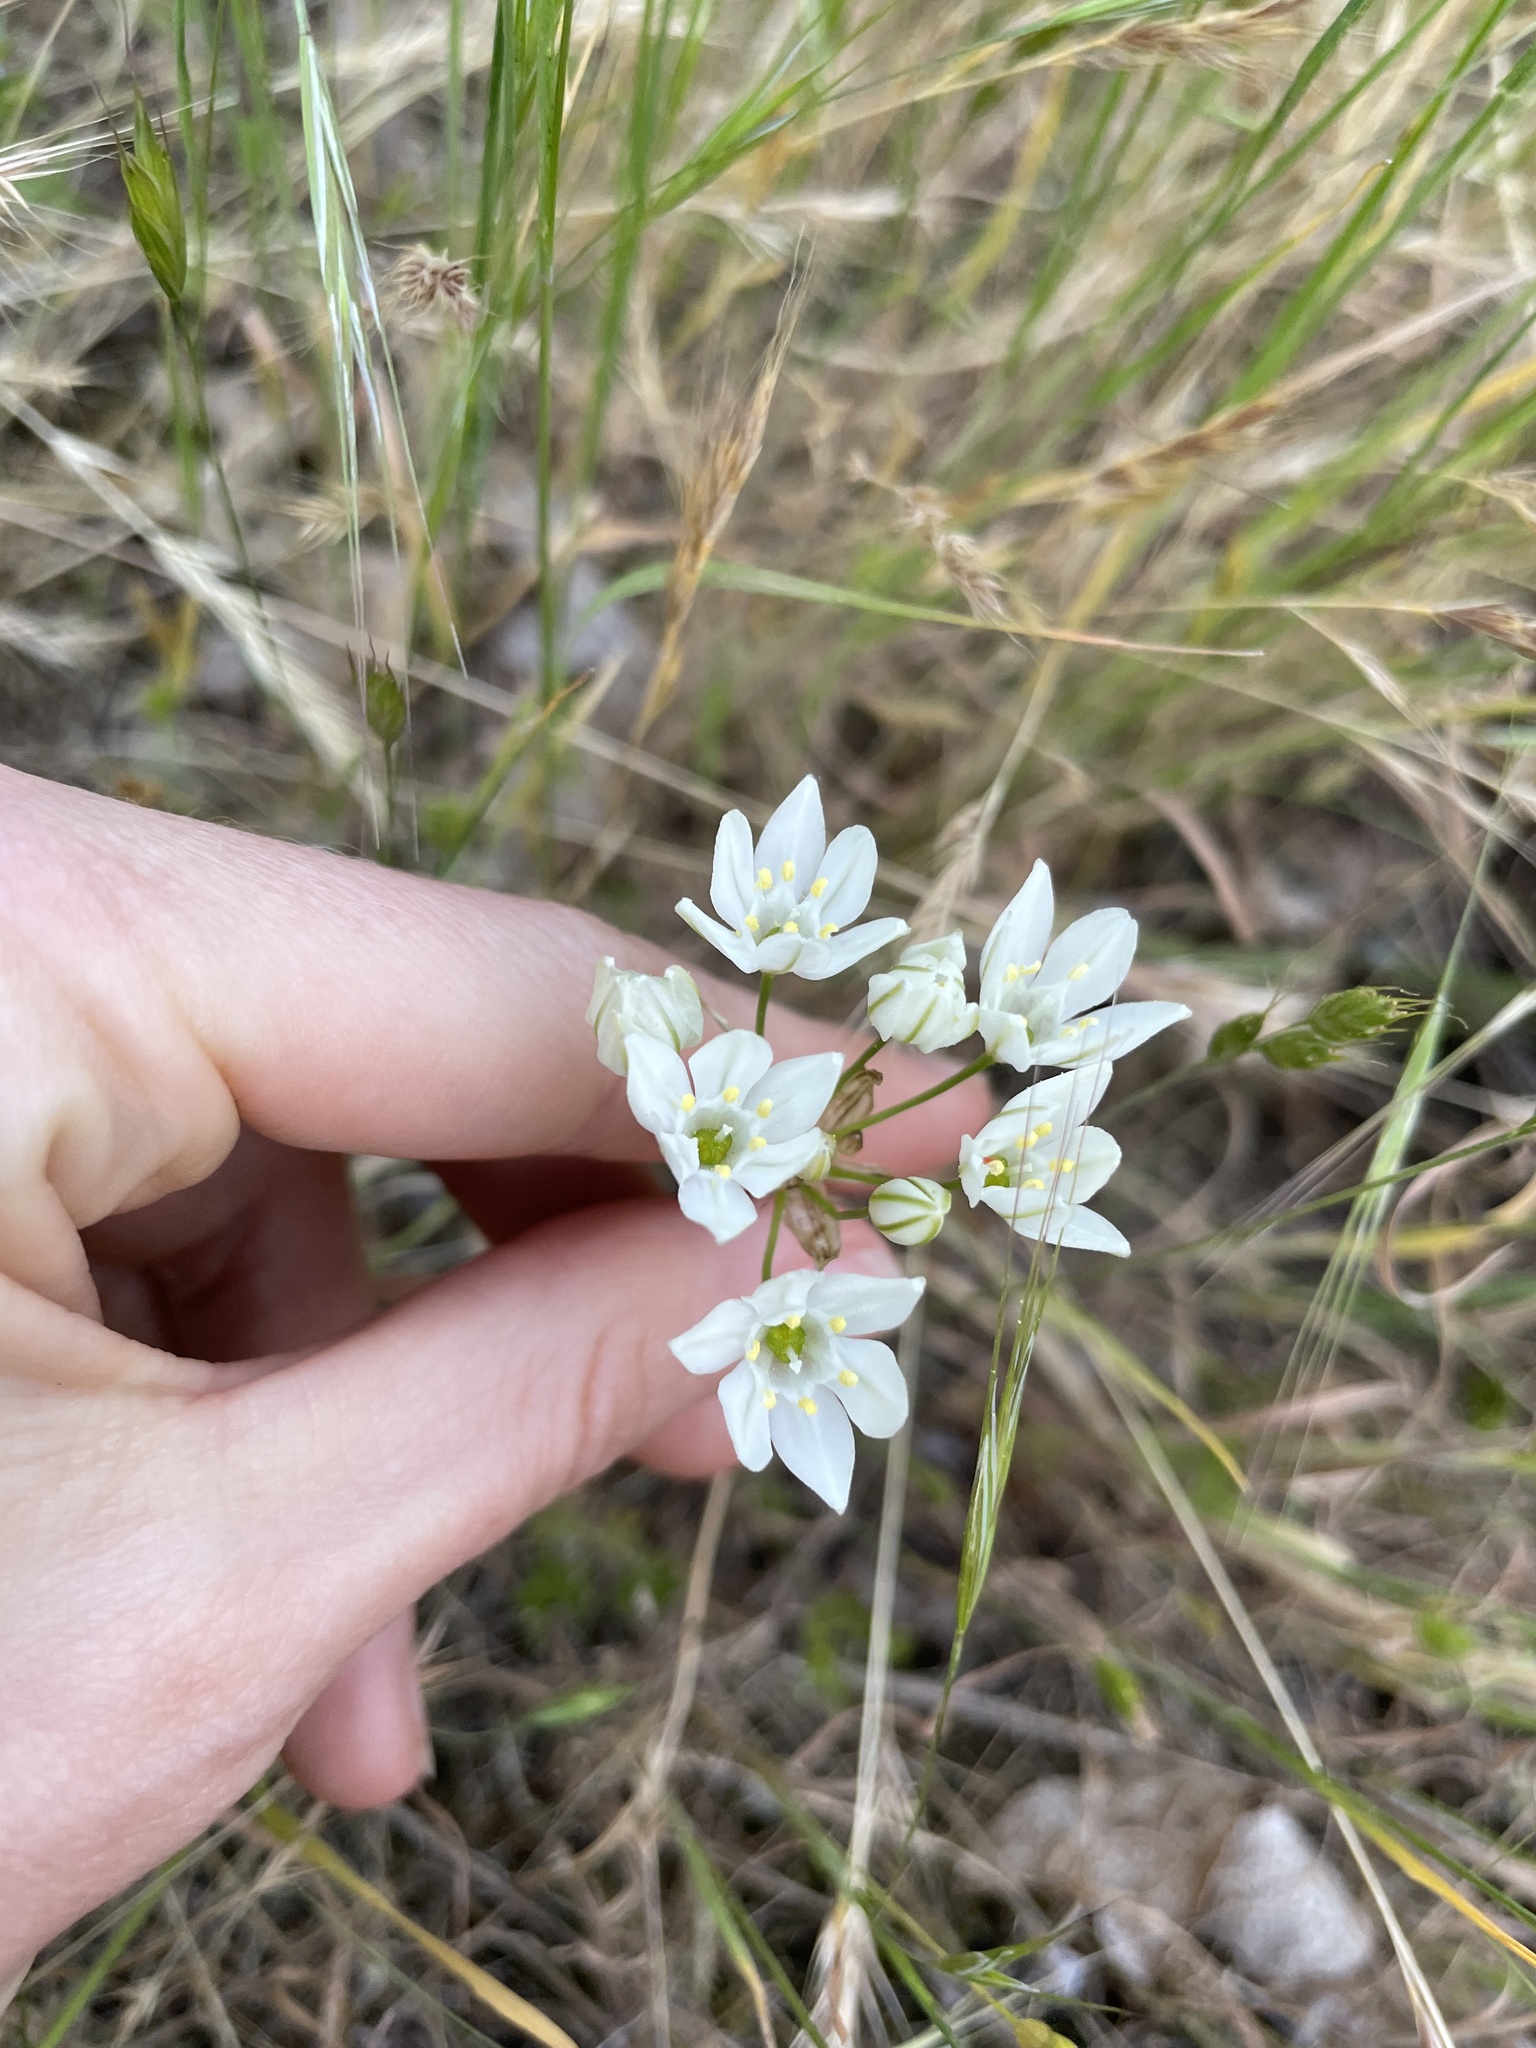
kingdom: Plantae
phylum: Tracheophyta
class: Liliopsida
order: Asparagales
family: Asparagaceae
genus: Triteleia
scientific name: Triteleia hyacinthina
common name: White brodiaea
